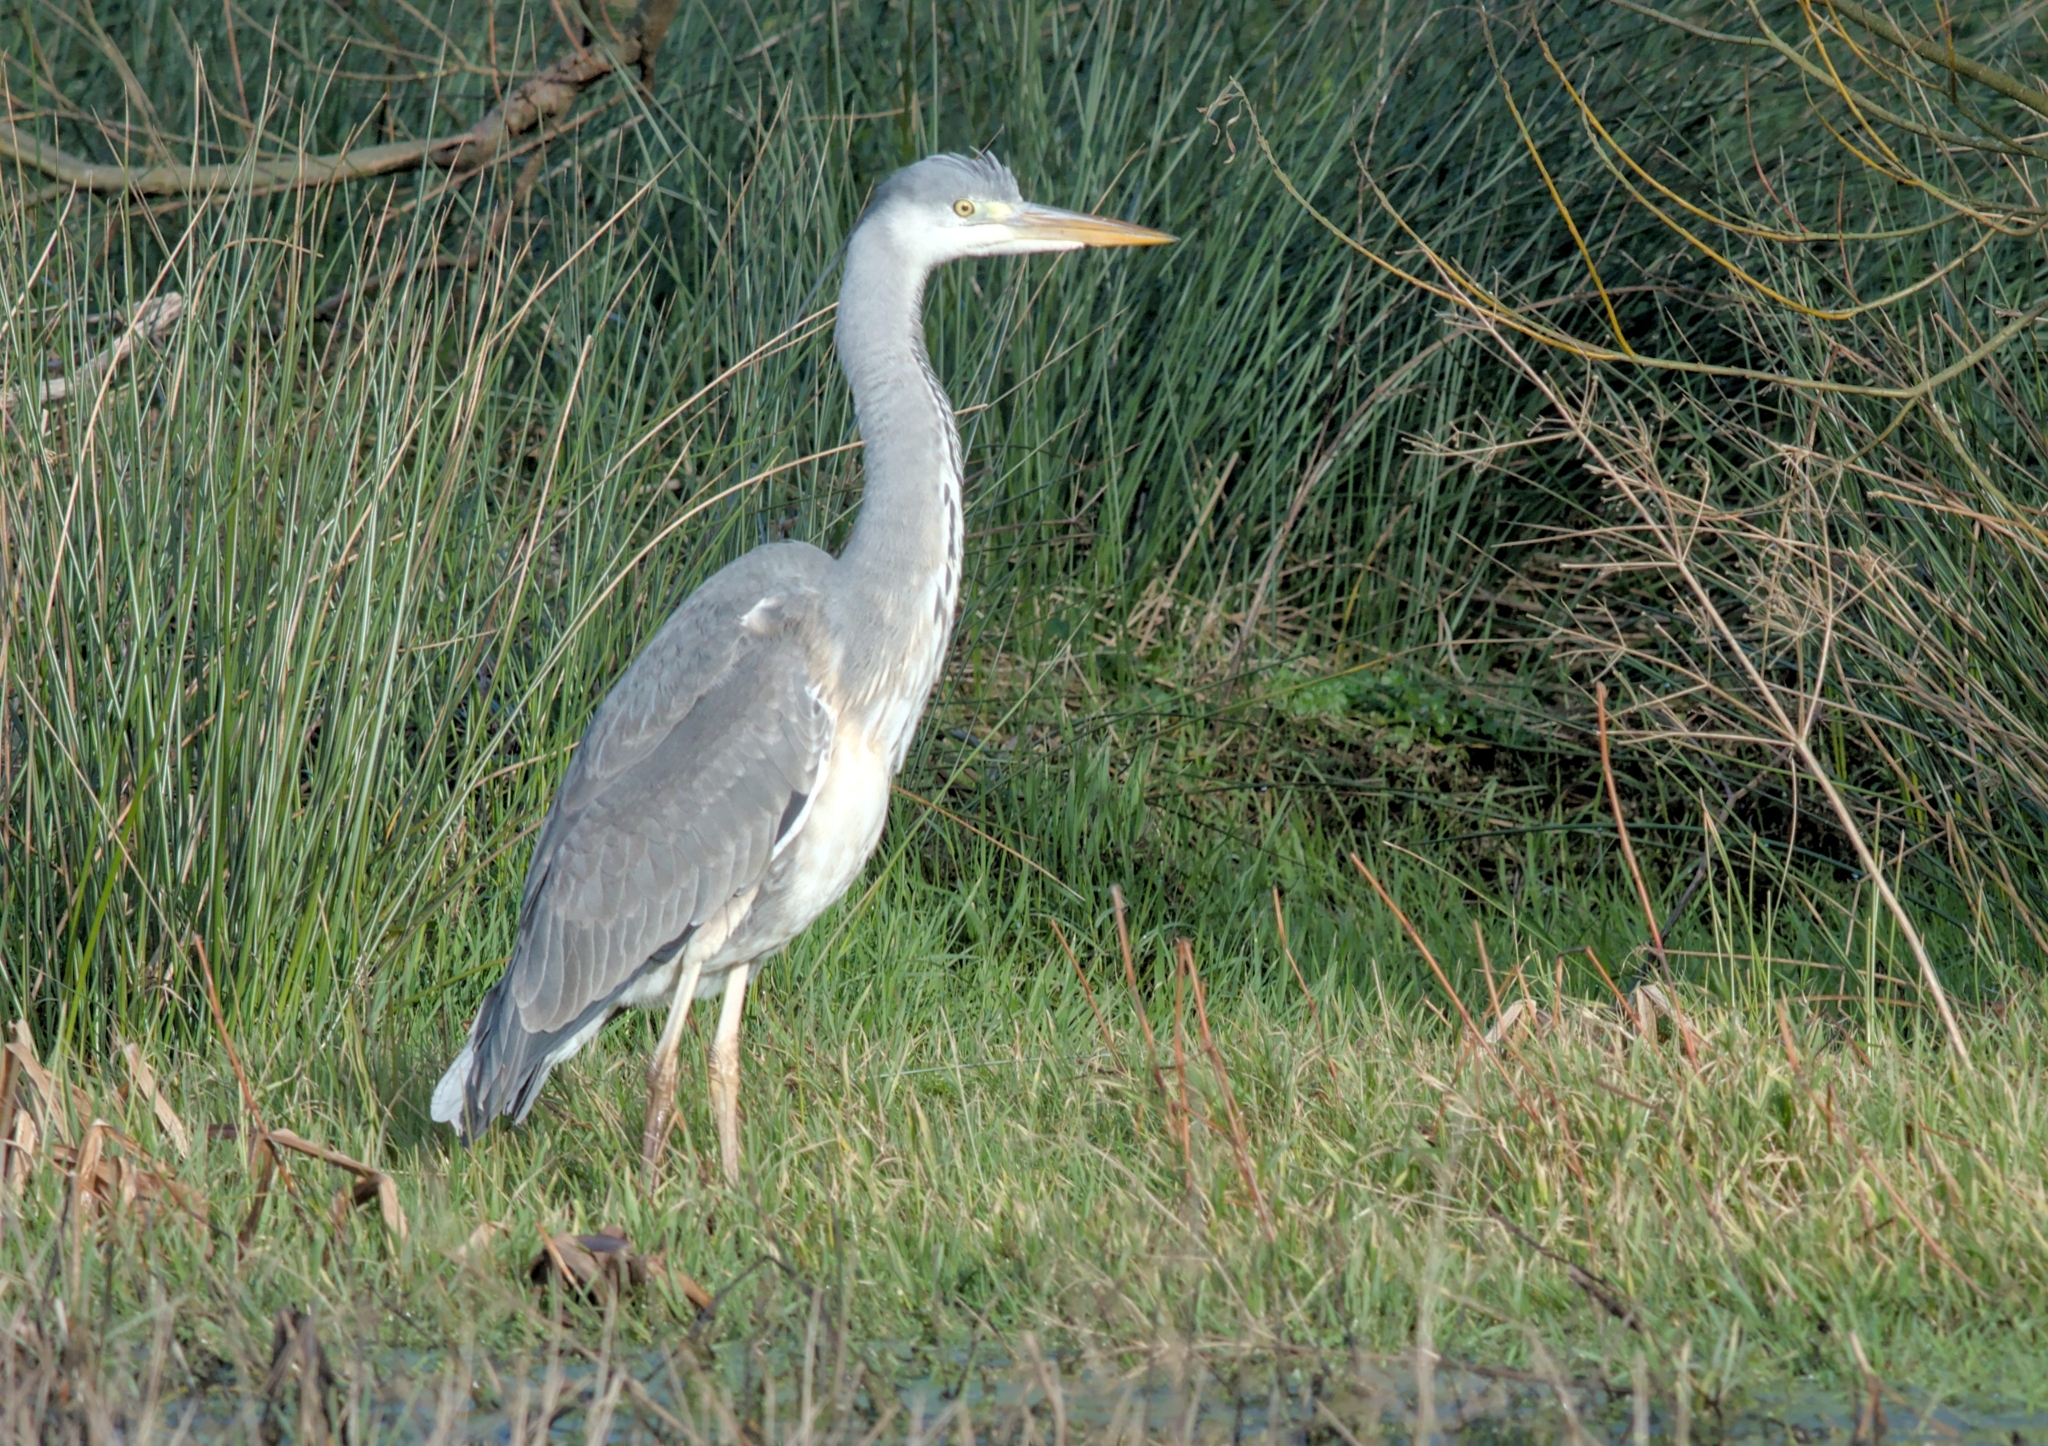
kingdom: Animalia
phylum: Chordata
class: Aves
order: Pelecaniformes
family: Ardeidae
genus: Ardea
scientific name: Ardea cinerea
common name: Grey heron
